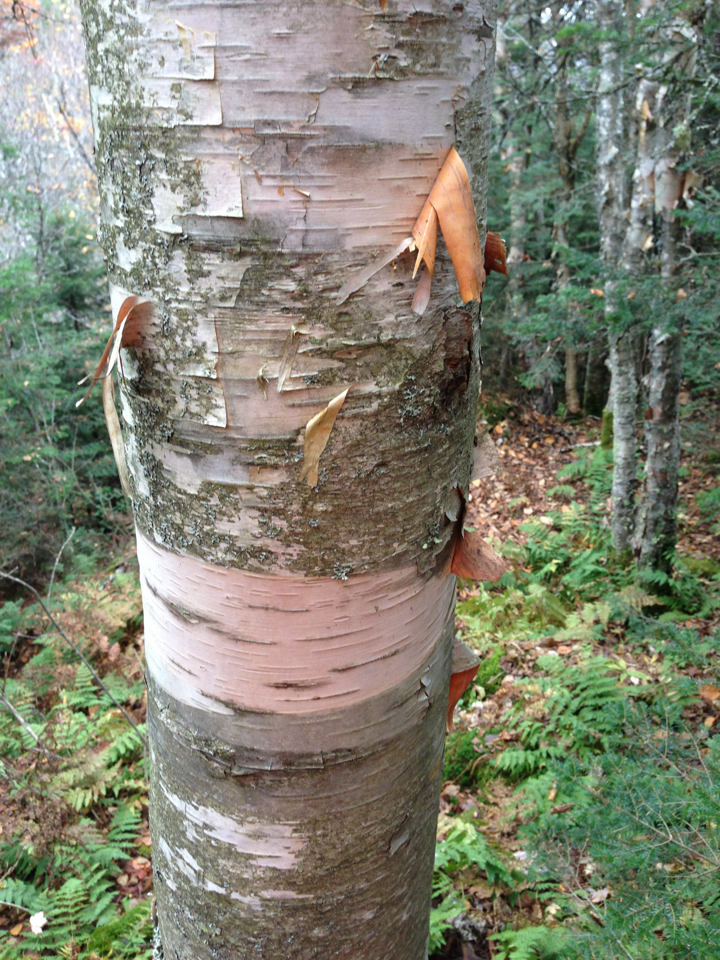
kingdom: Plantae
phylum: Tracheophyta
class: Magnoliopsida
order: Fagales
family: Betulaceae
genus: Betula
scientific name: Betula cordifolia
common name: Mountain white birch
